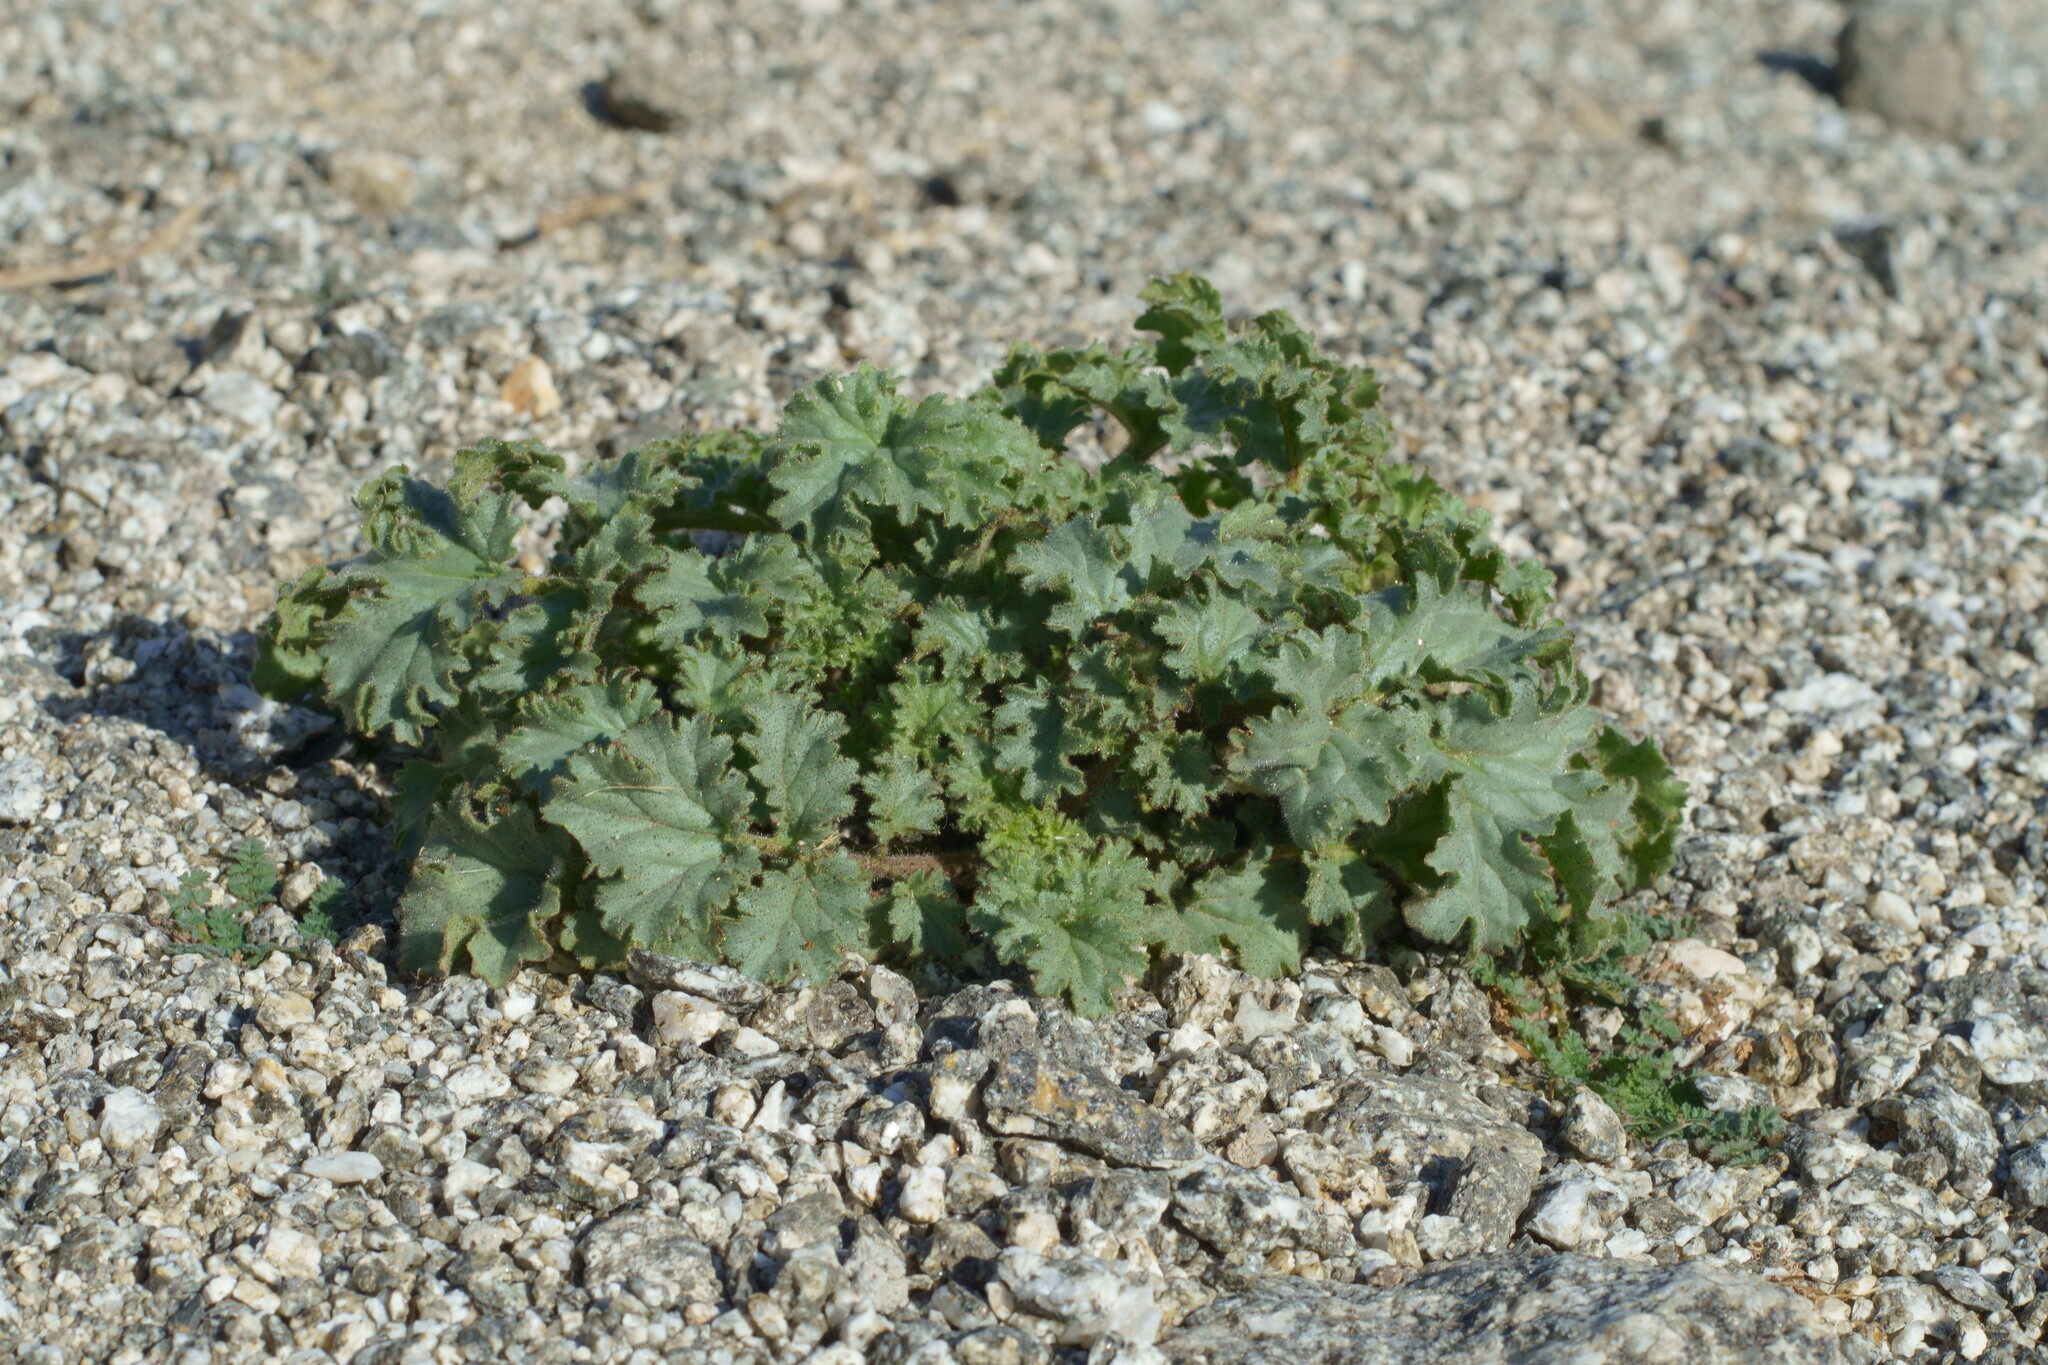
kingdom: Plantae
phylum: Tracheophyta
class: Magnoliopsida
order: Boraginales
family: Hydrophyllaceae
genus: Phacelia
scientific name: Phacelia pedicellata
